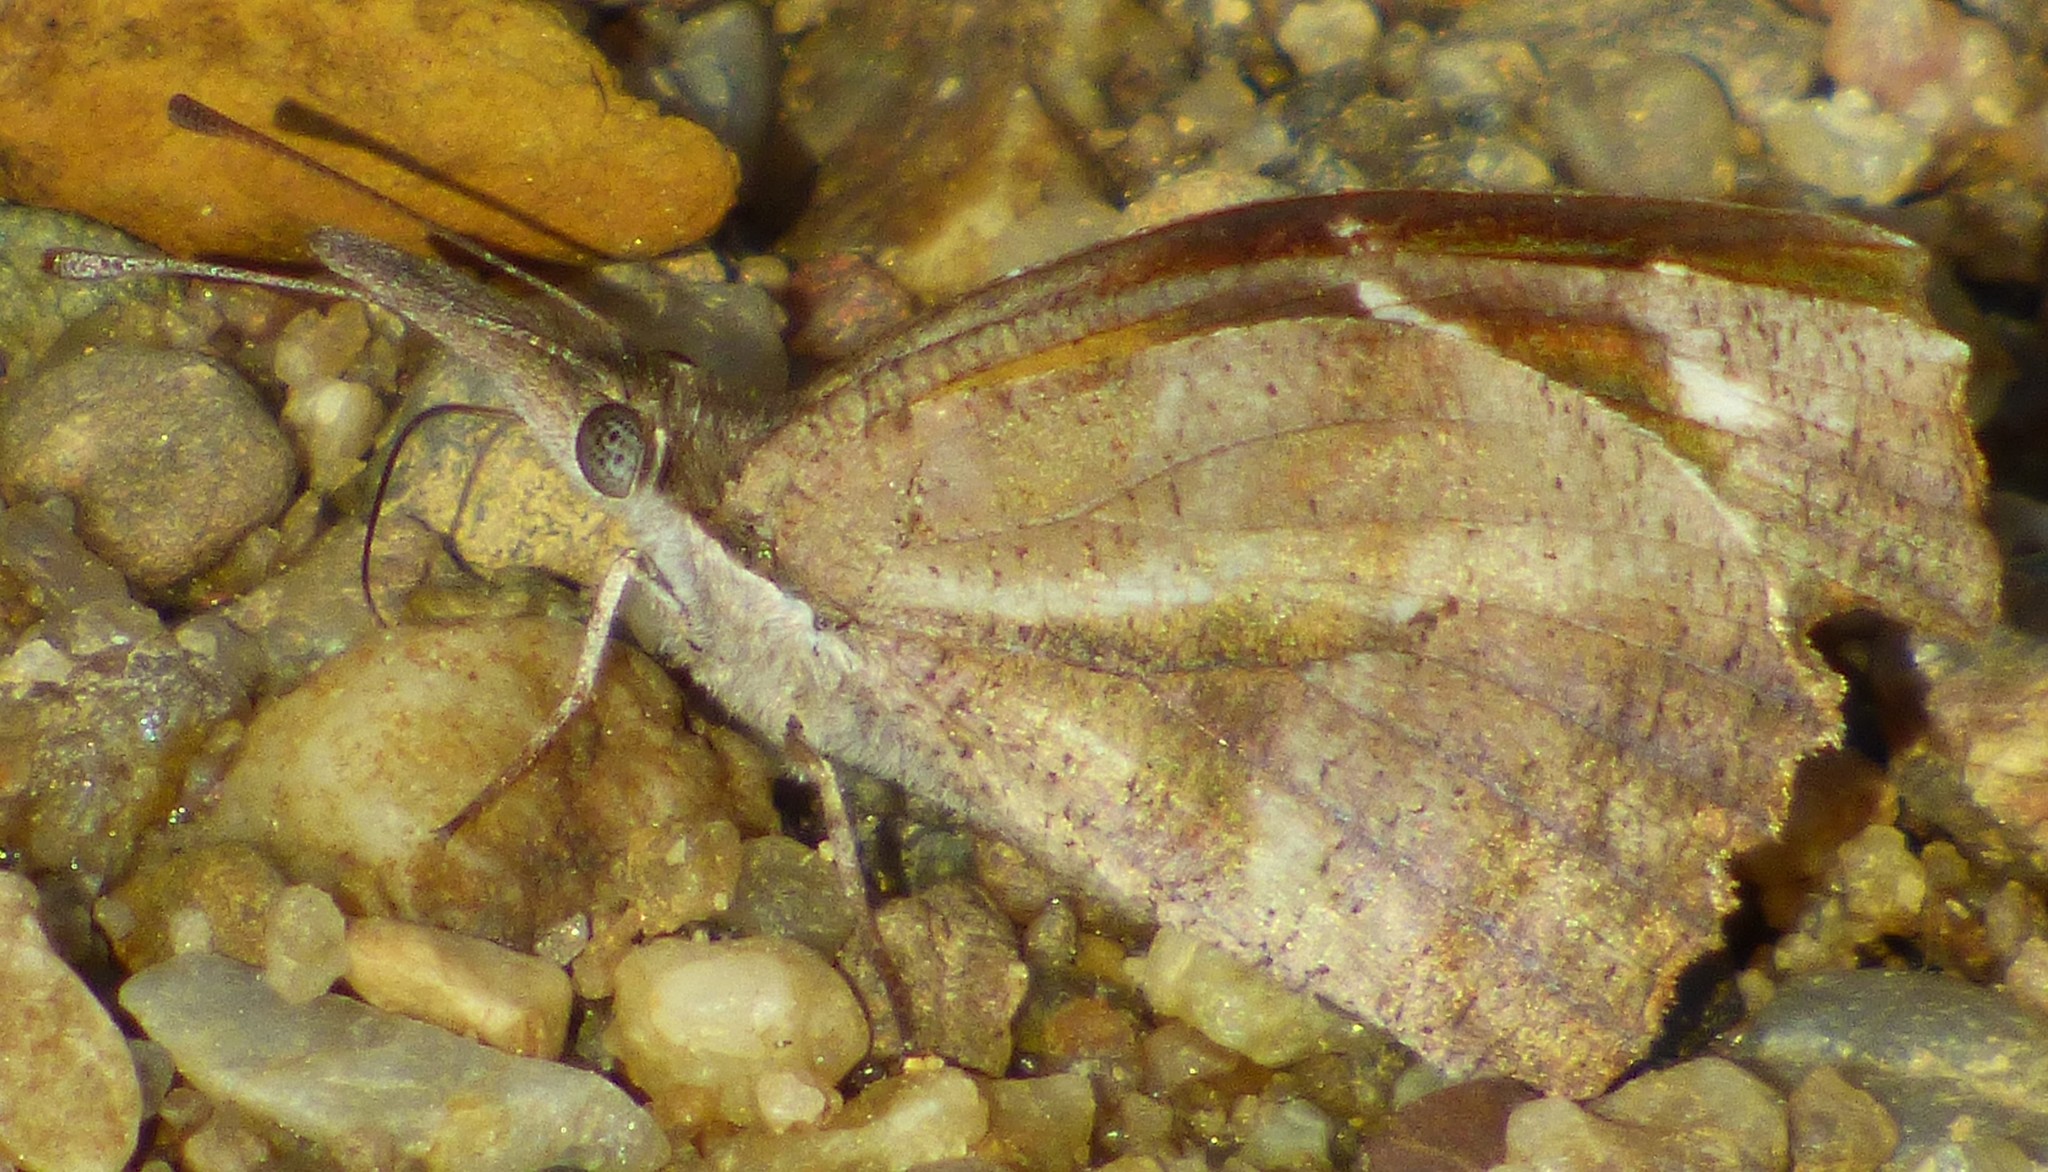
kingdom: Animalia
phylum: Arthropoda
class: Insecta
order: Lepidoptera
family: Nymphalidae
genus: Libytheana
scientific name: Libytheana carinenta
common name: American snout
